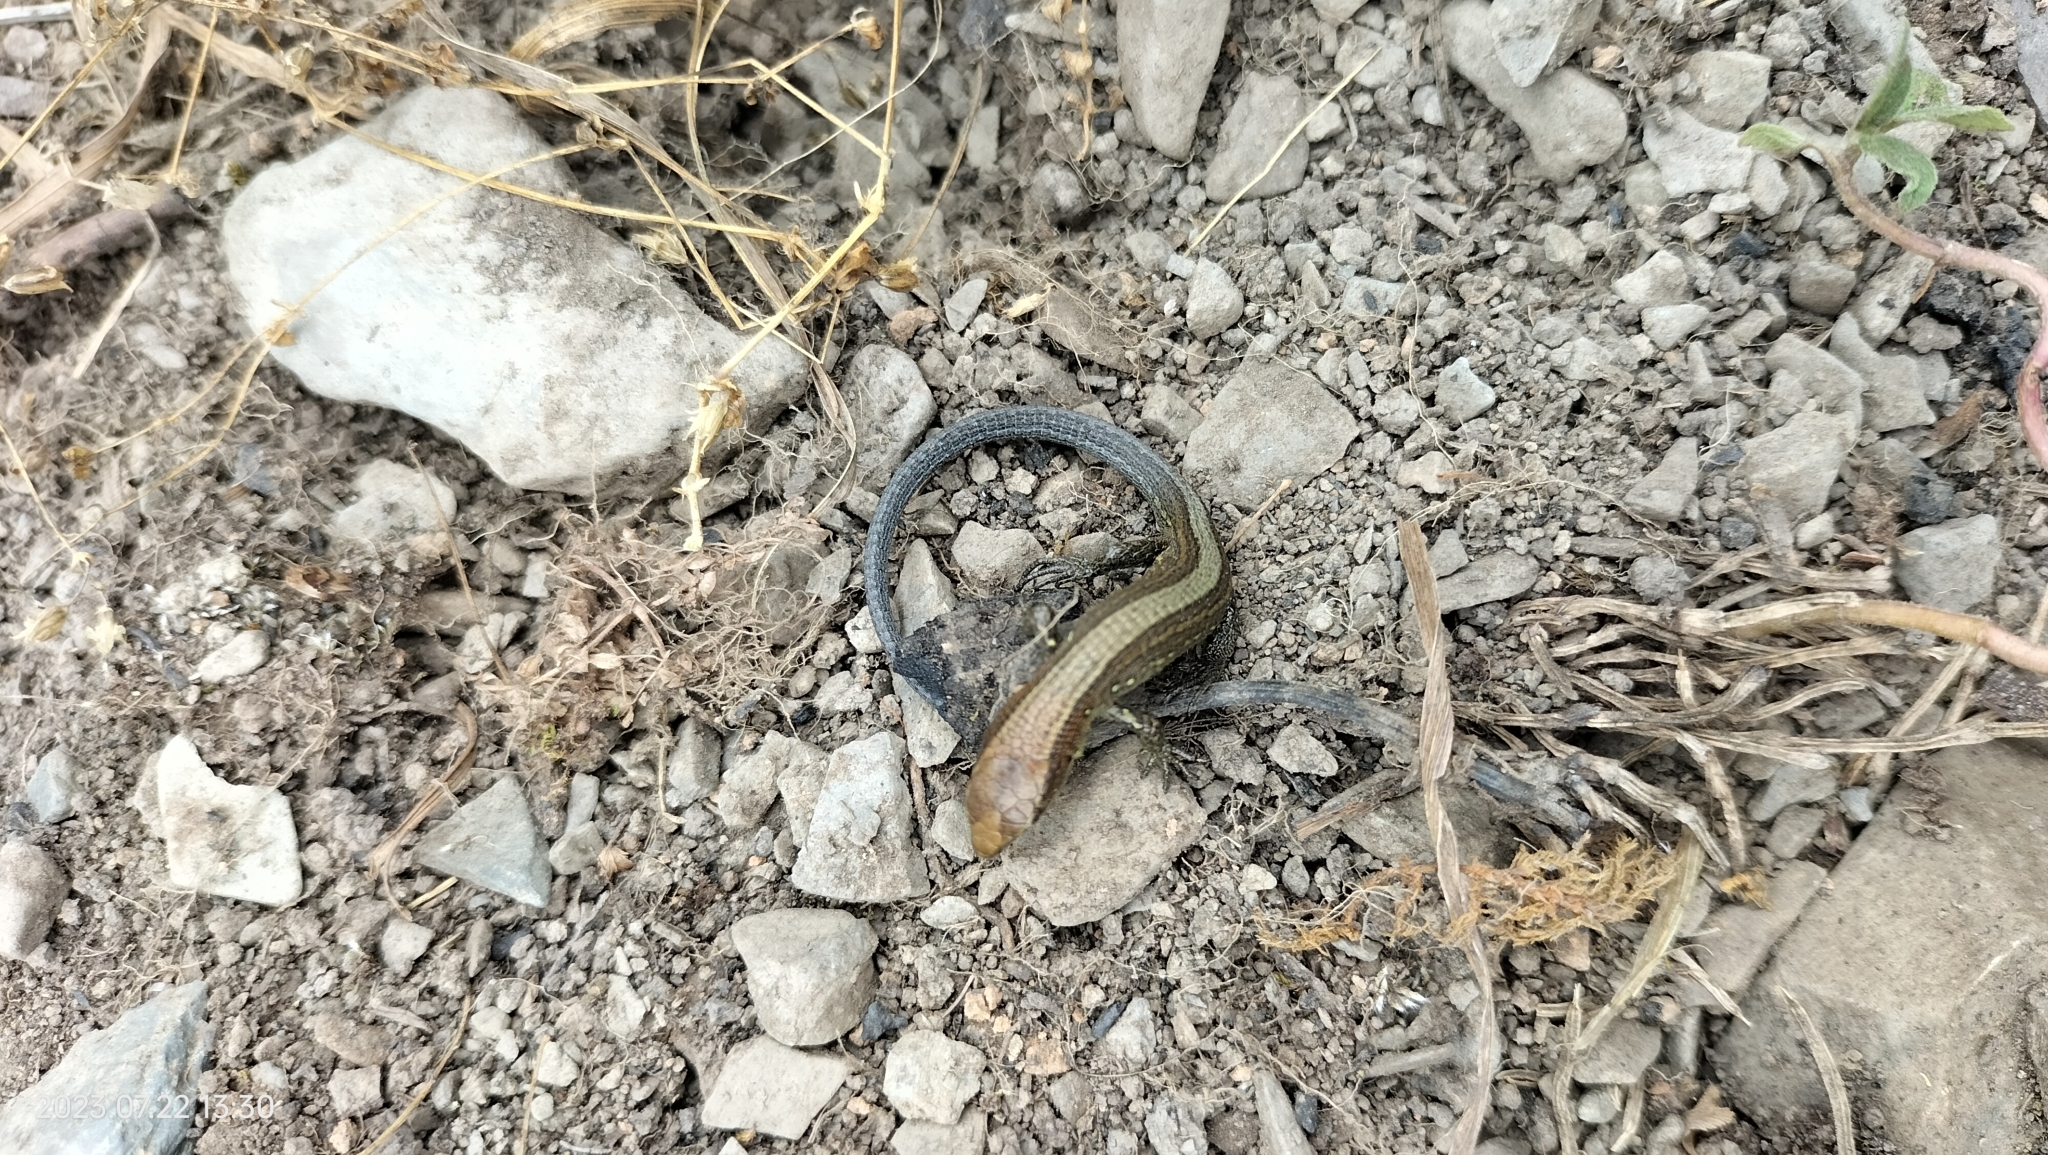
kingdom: Animalia
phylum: Chordata
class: Squamata
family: Gymnophthalmidae
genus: Proctoporus
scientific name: Proctoporus chasqui
